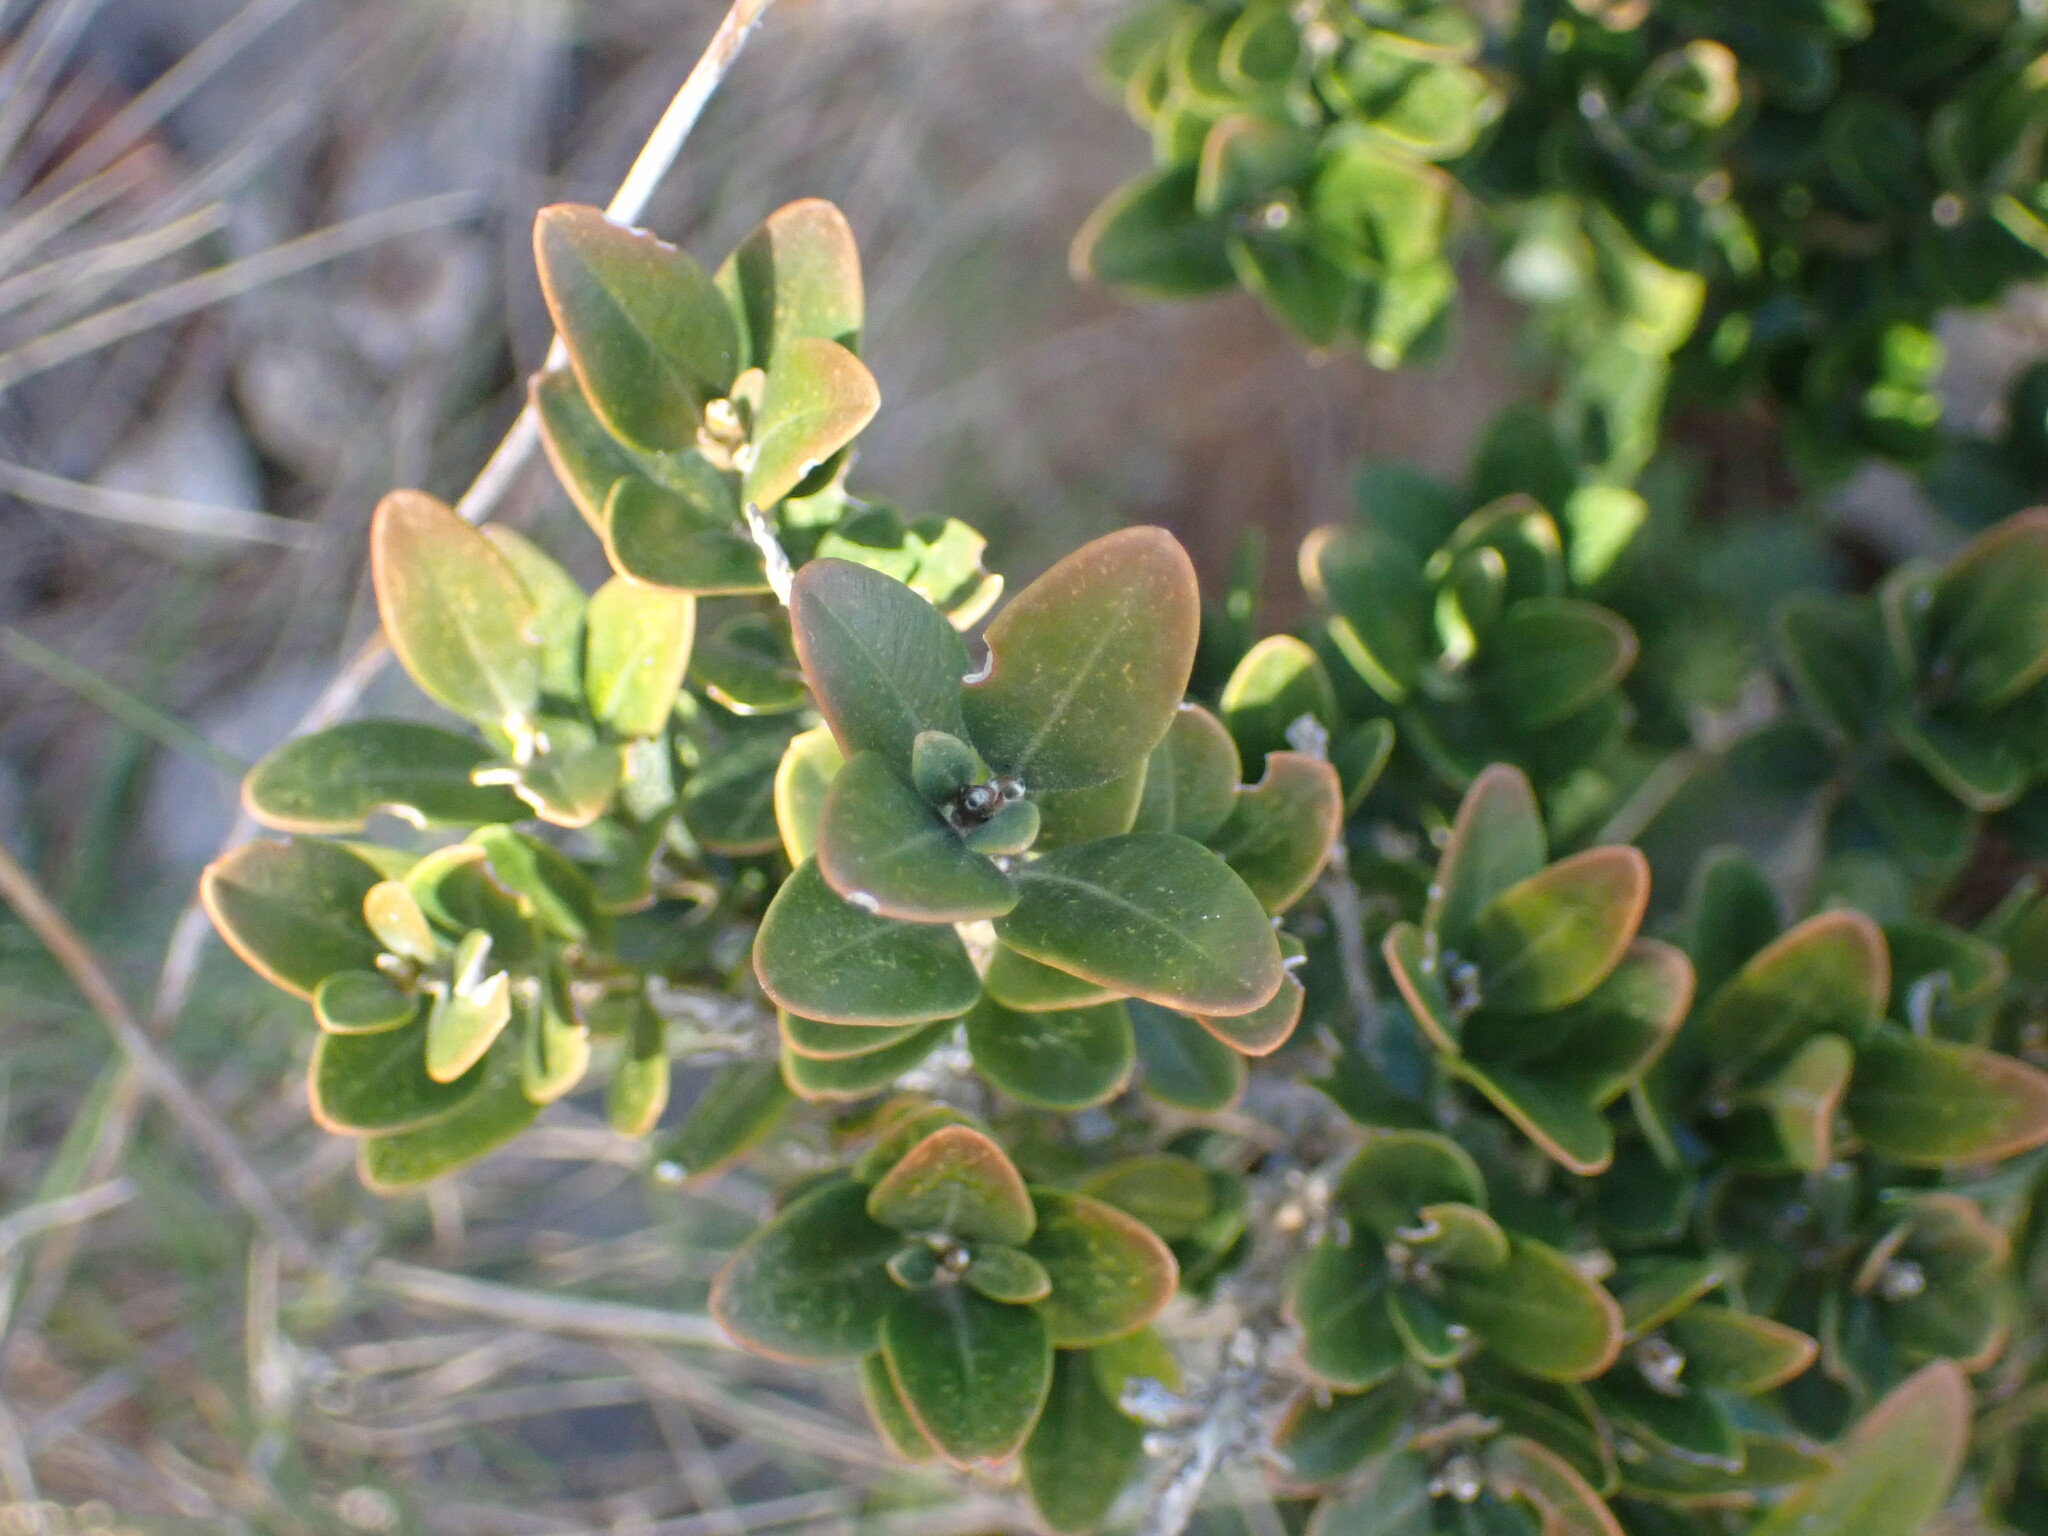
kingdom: Plantae
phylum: Tracheophyta
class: Magnoliopsida
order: Buxales
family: Buxaceae
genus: Buxus
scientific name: Buxus sempervirens
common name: Box
